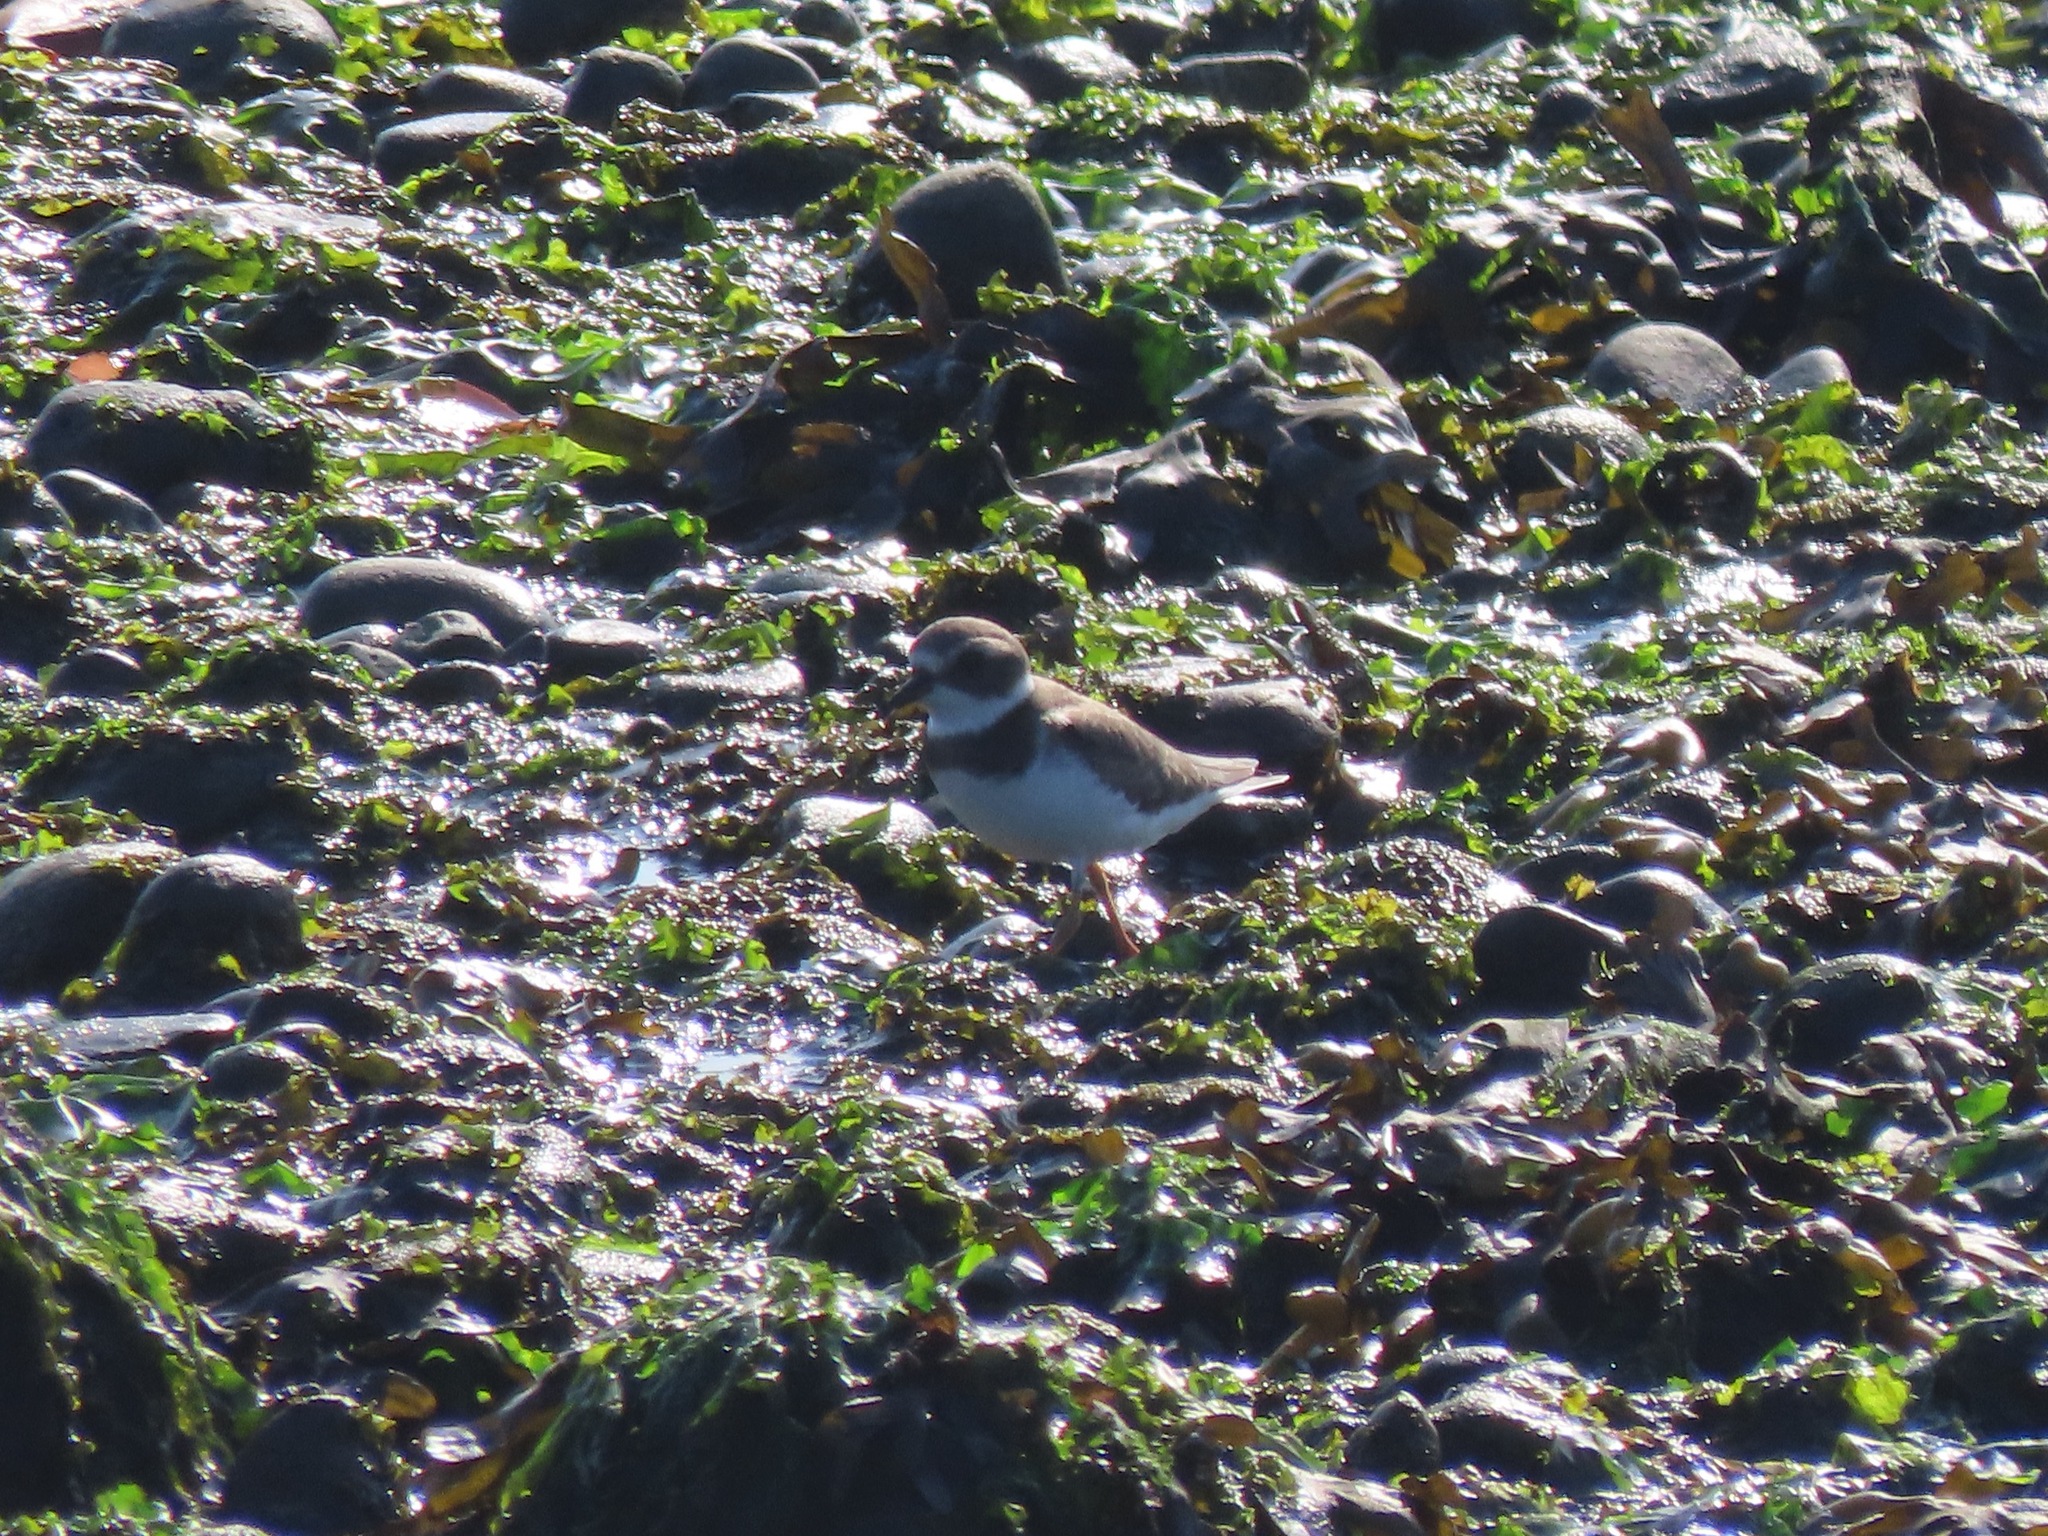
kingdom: Animalia
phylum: Chordata
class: Aves
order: Charadriiformes
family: Charadriidae
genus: Charadrius
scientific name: Charadrius semipalmatus
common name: Semipalmated plover
